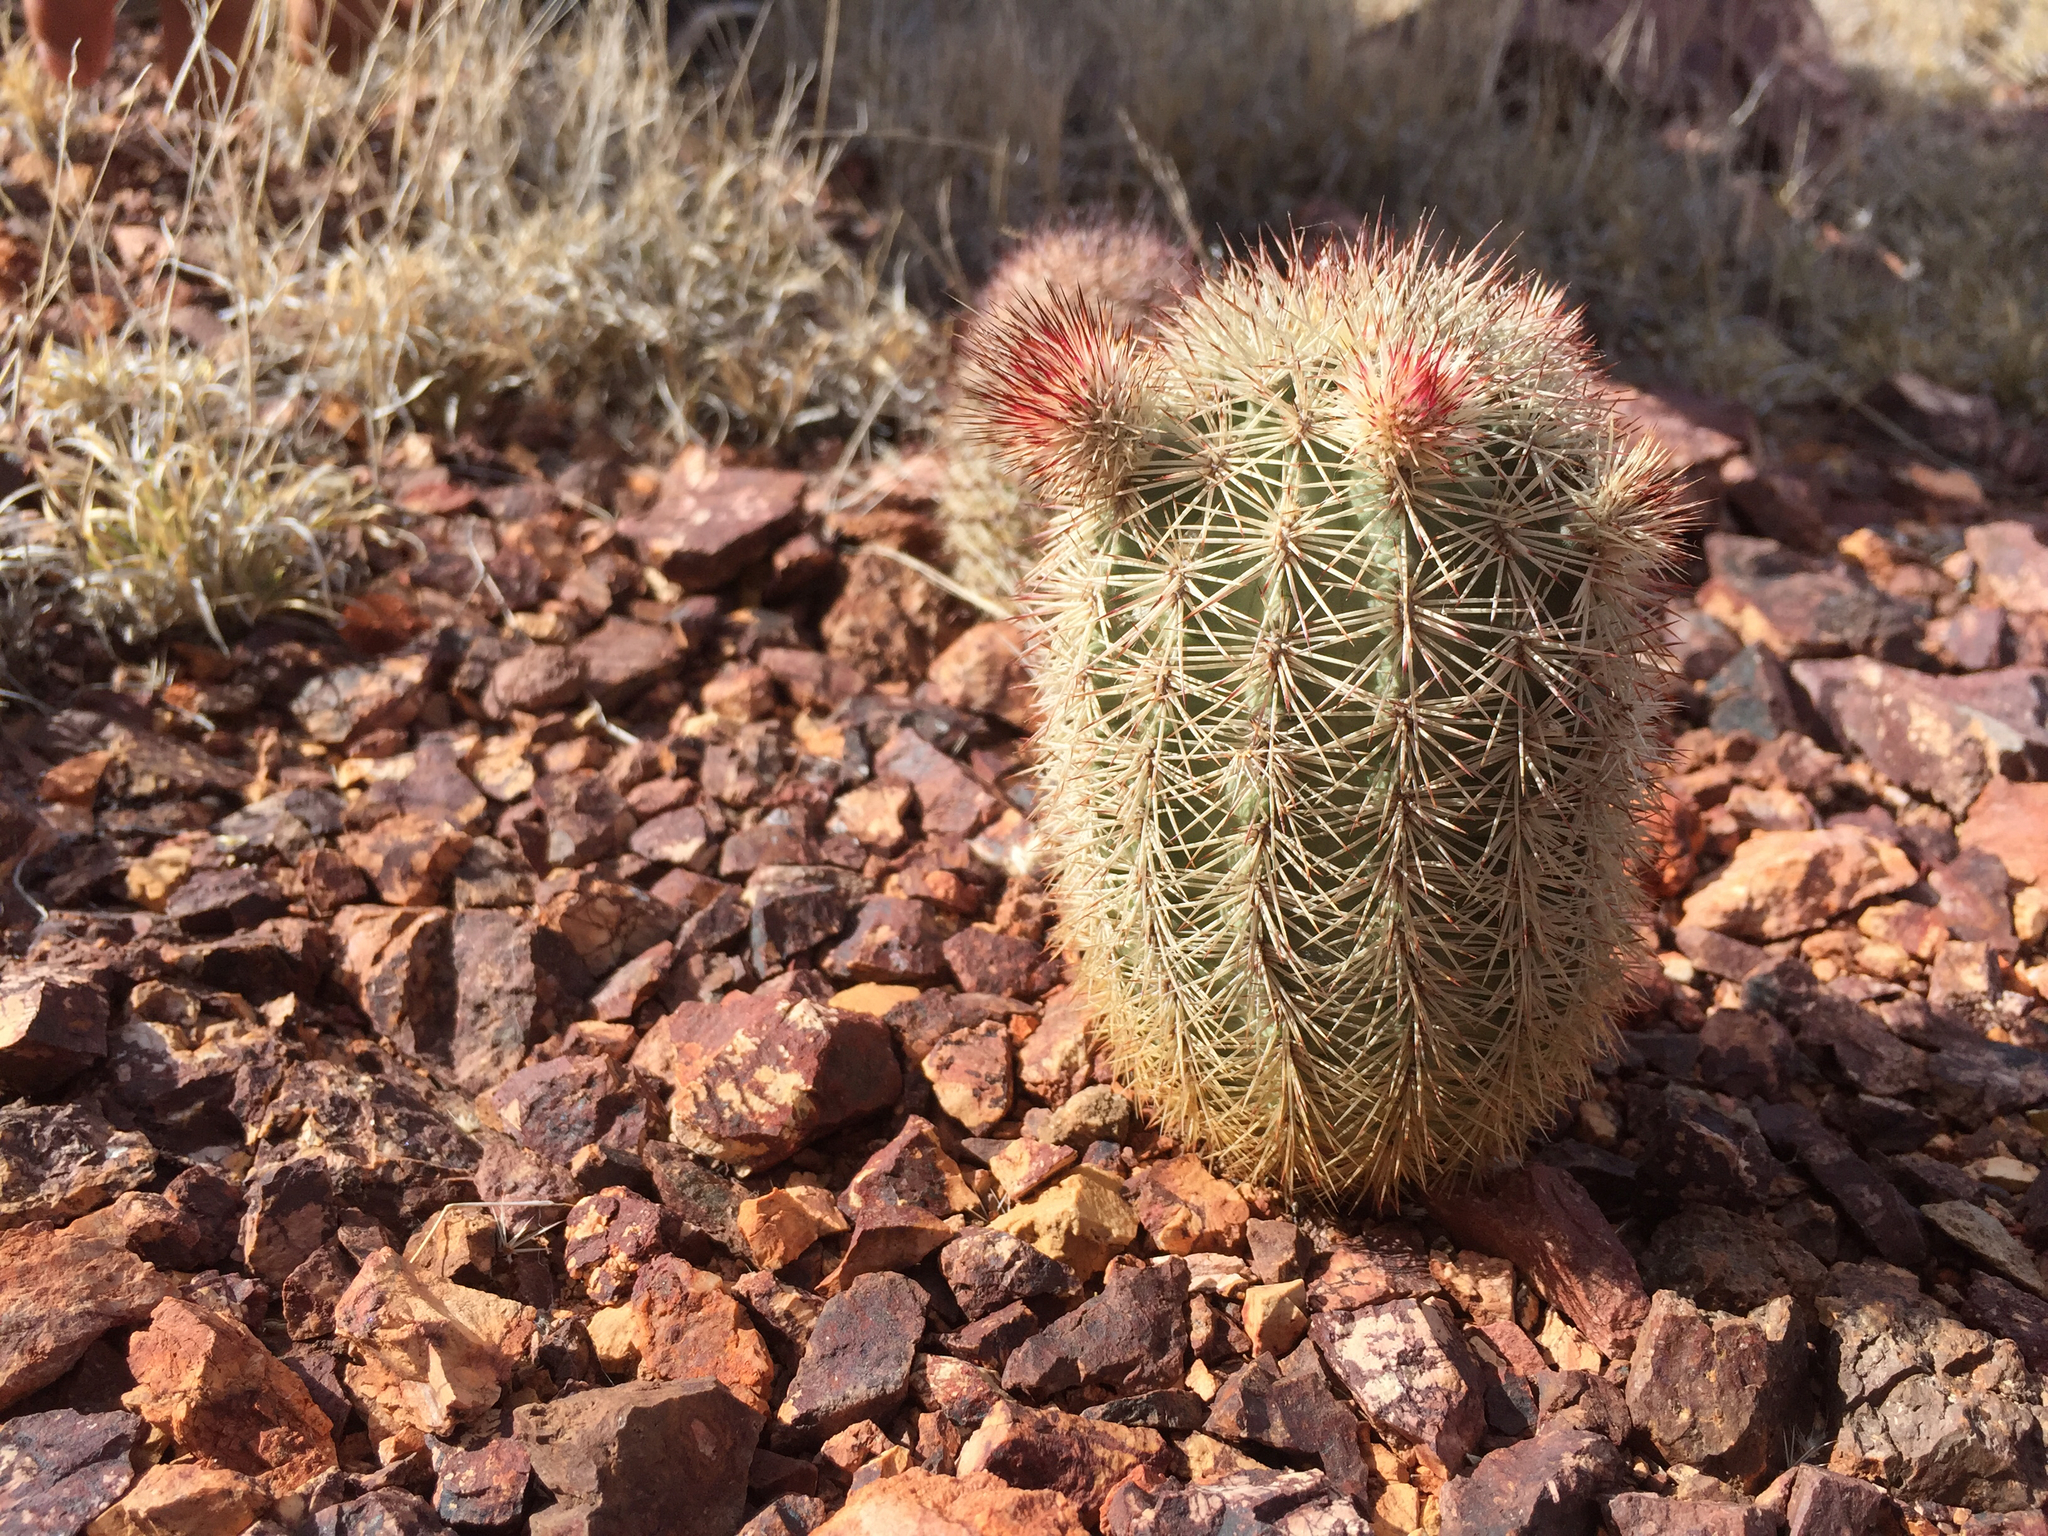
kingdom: Plantae
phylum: Tracheophyta
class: Magnoliopsida
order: Caryophyllales
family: Cactaceae
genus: Echinocereus
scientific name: Echinocereus scopulorum
